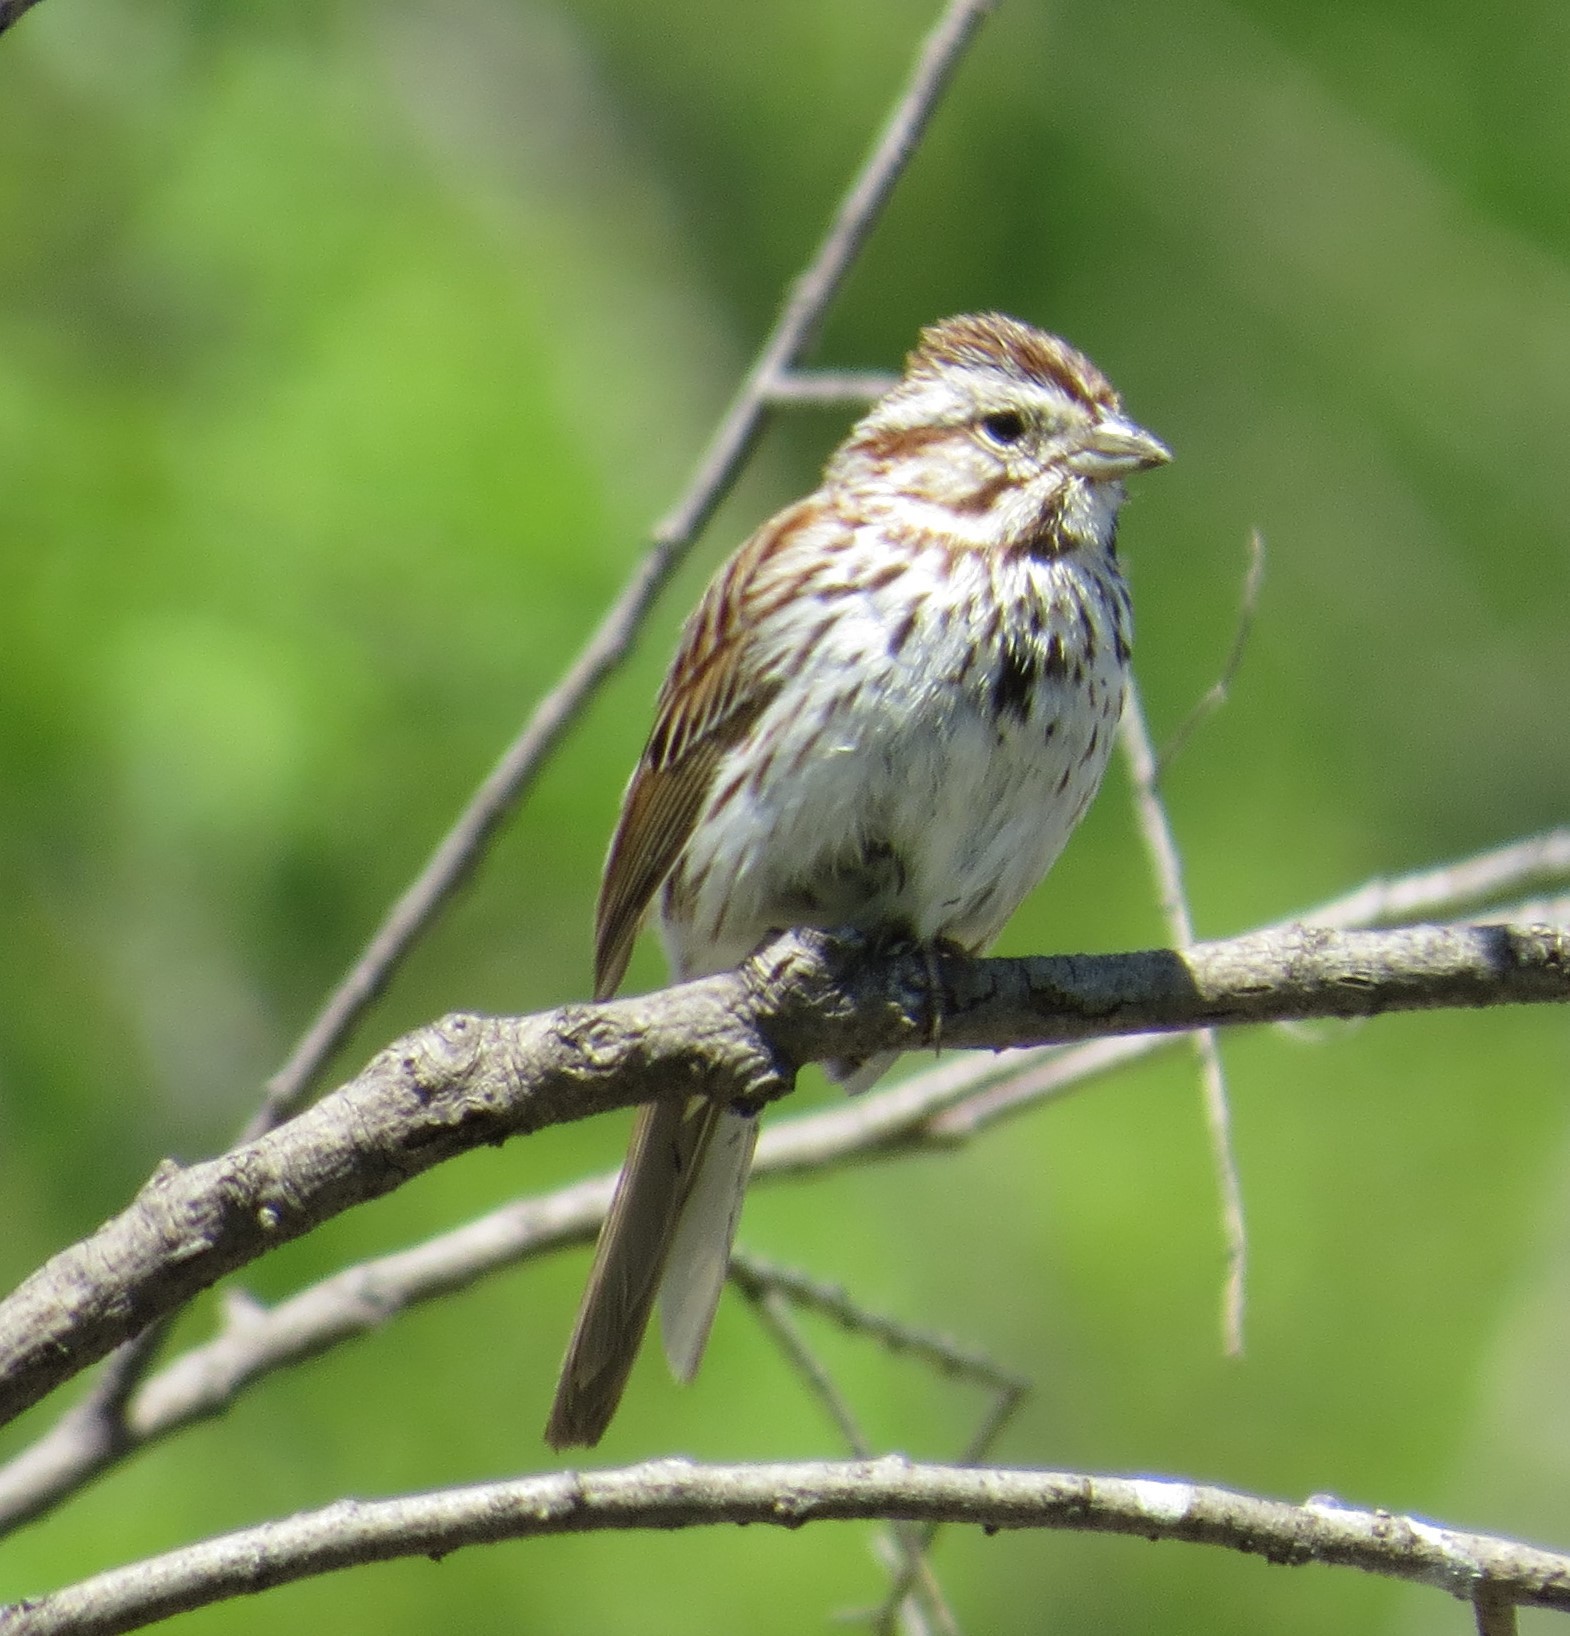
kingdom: Animalia
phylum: Chordata
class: Aves
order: Passeriformes
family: Passerellidae
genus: Melospiza
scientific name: Melospiza melodia
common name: Song sparrow
